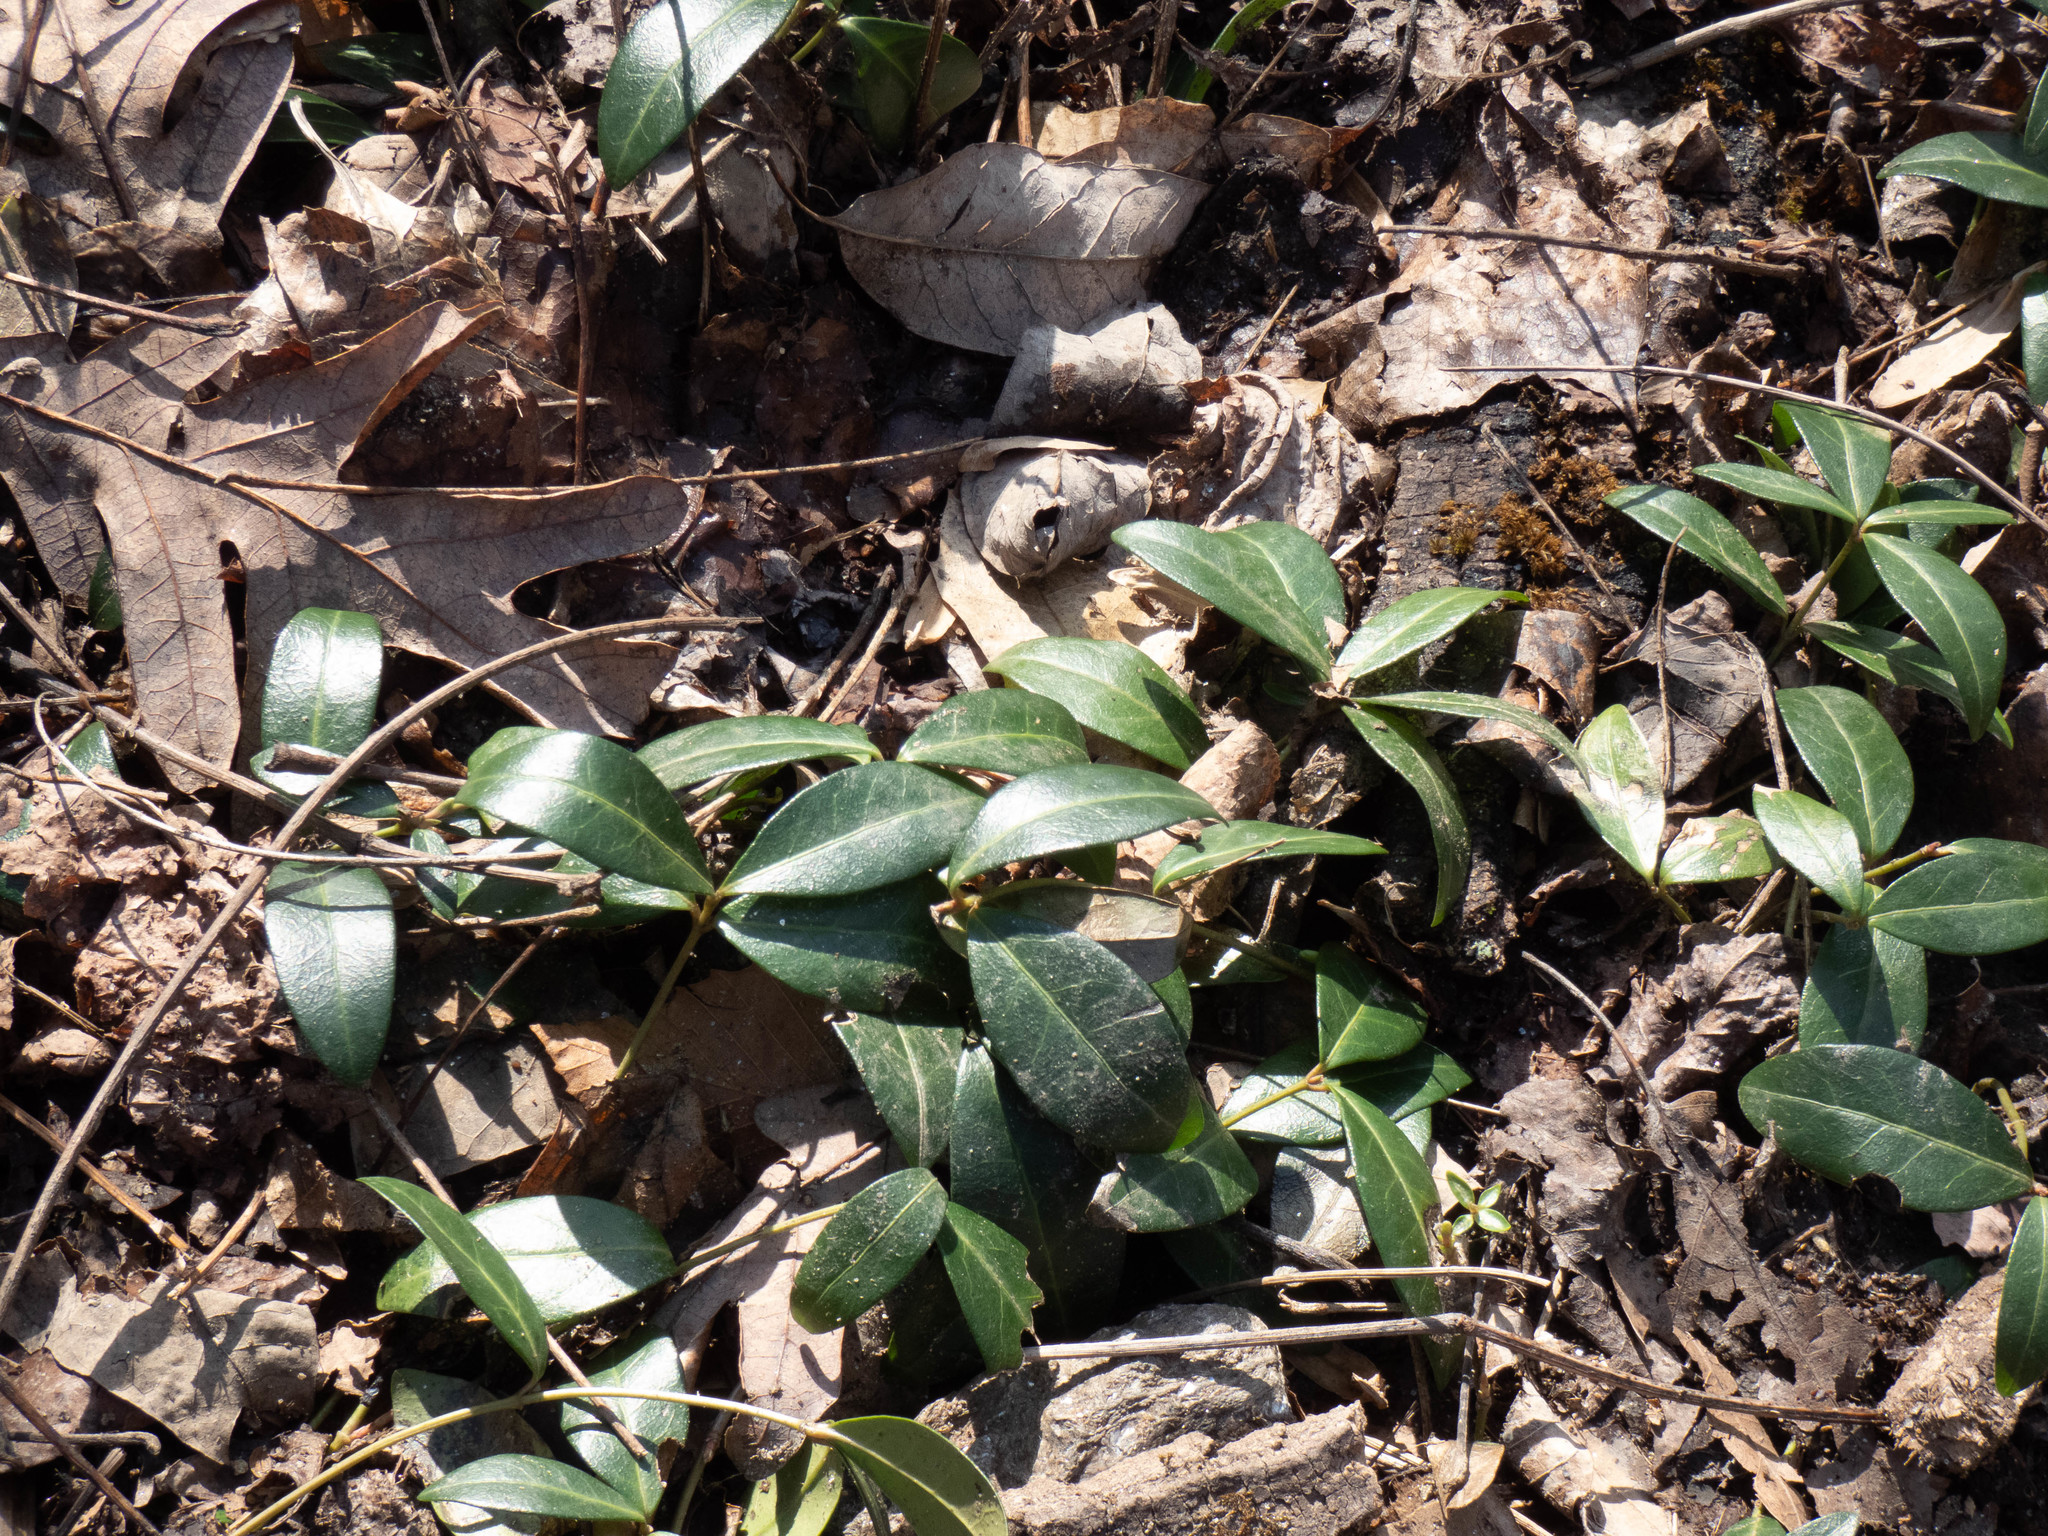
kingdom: Plantae
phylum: Tracheophyta
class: Magnoliopsida
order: Gentianales
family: Apocynaceae
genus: Vinca
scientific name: Vinca minor
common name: Lesser periwinkle
